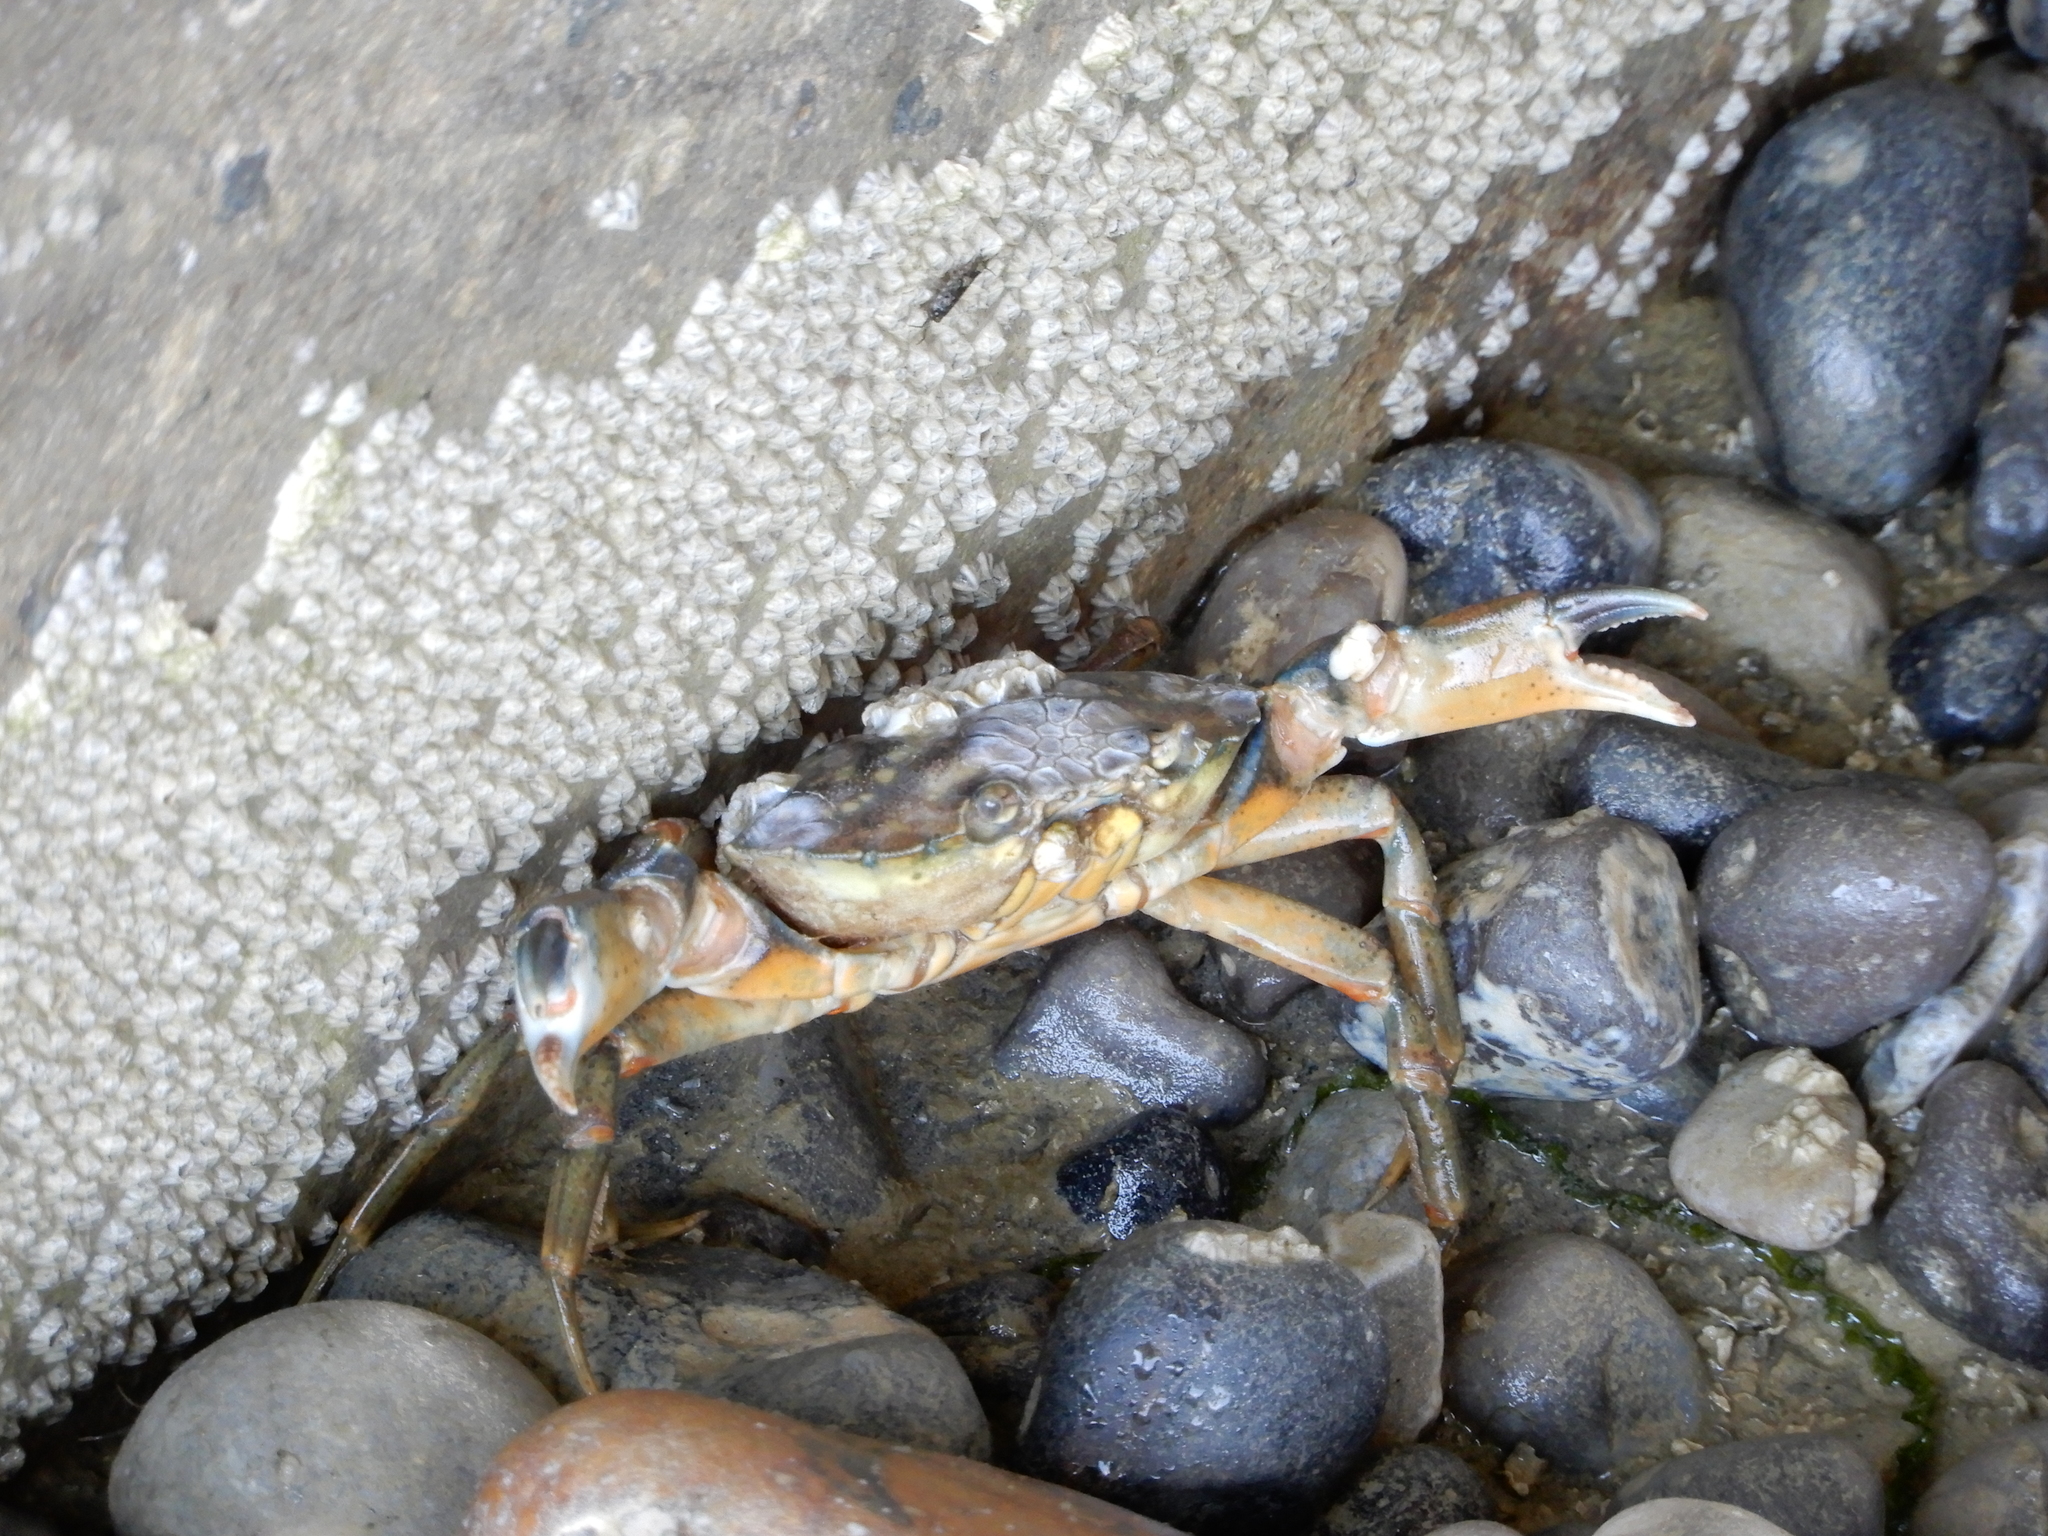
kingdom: Animalia
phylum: Arthropoda
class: Malacostraca
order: Decapoda
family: Carcinidae
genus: Carcinus
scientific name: Carcinus maenas
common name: European green crab
